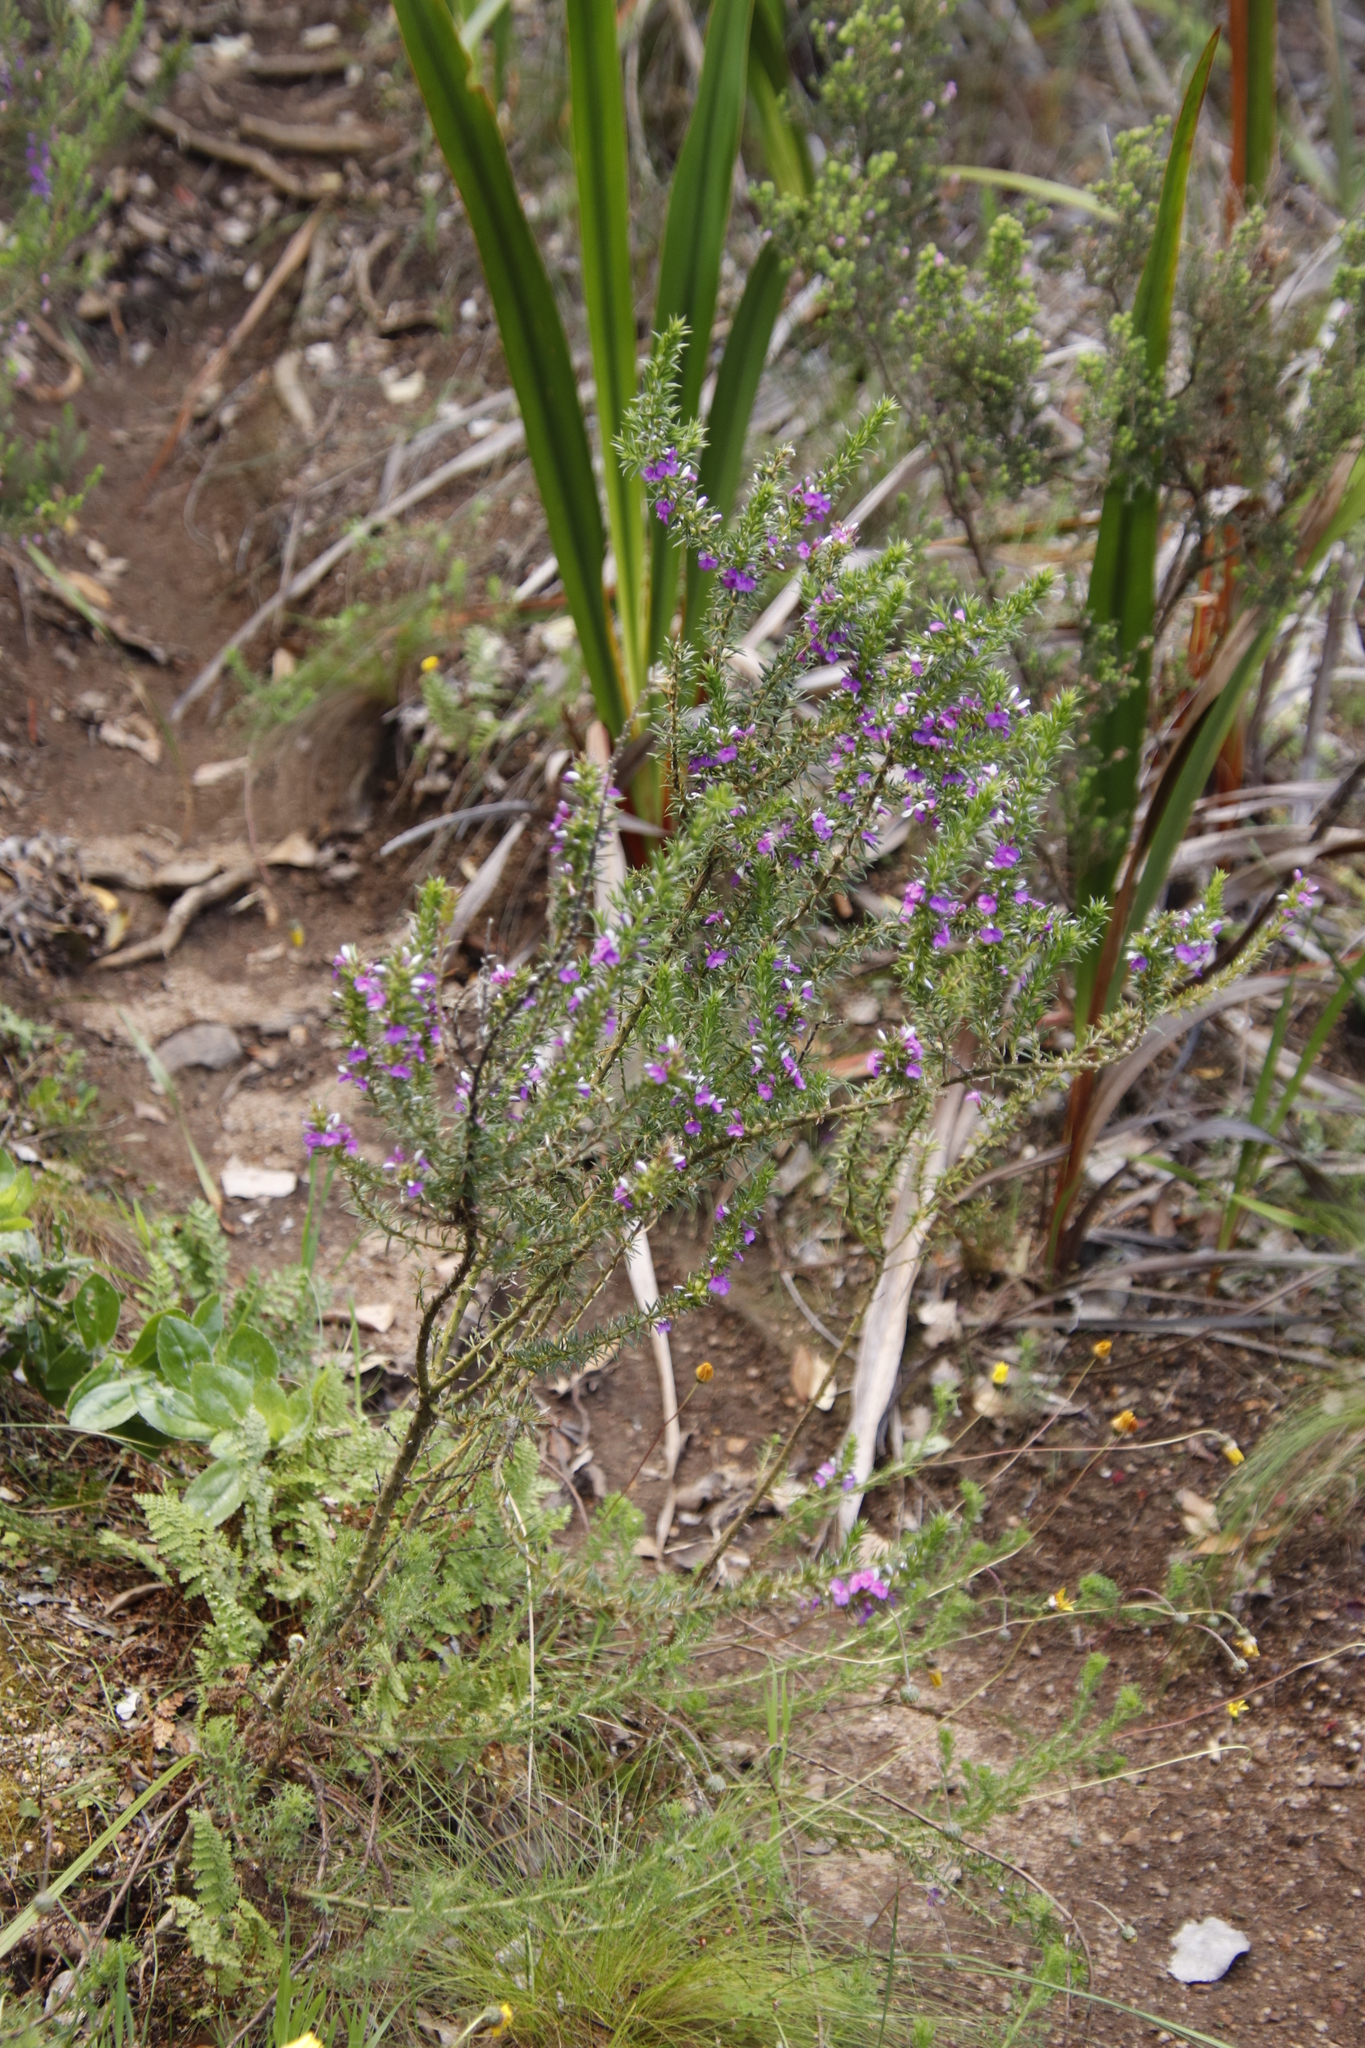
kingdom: Plantae
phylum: Tracheophyta
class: Magnoliopsida
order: Fabales
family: Polygalaceae
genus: Muraltia
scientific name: Muraltia heisteria
